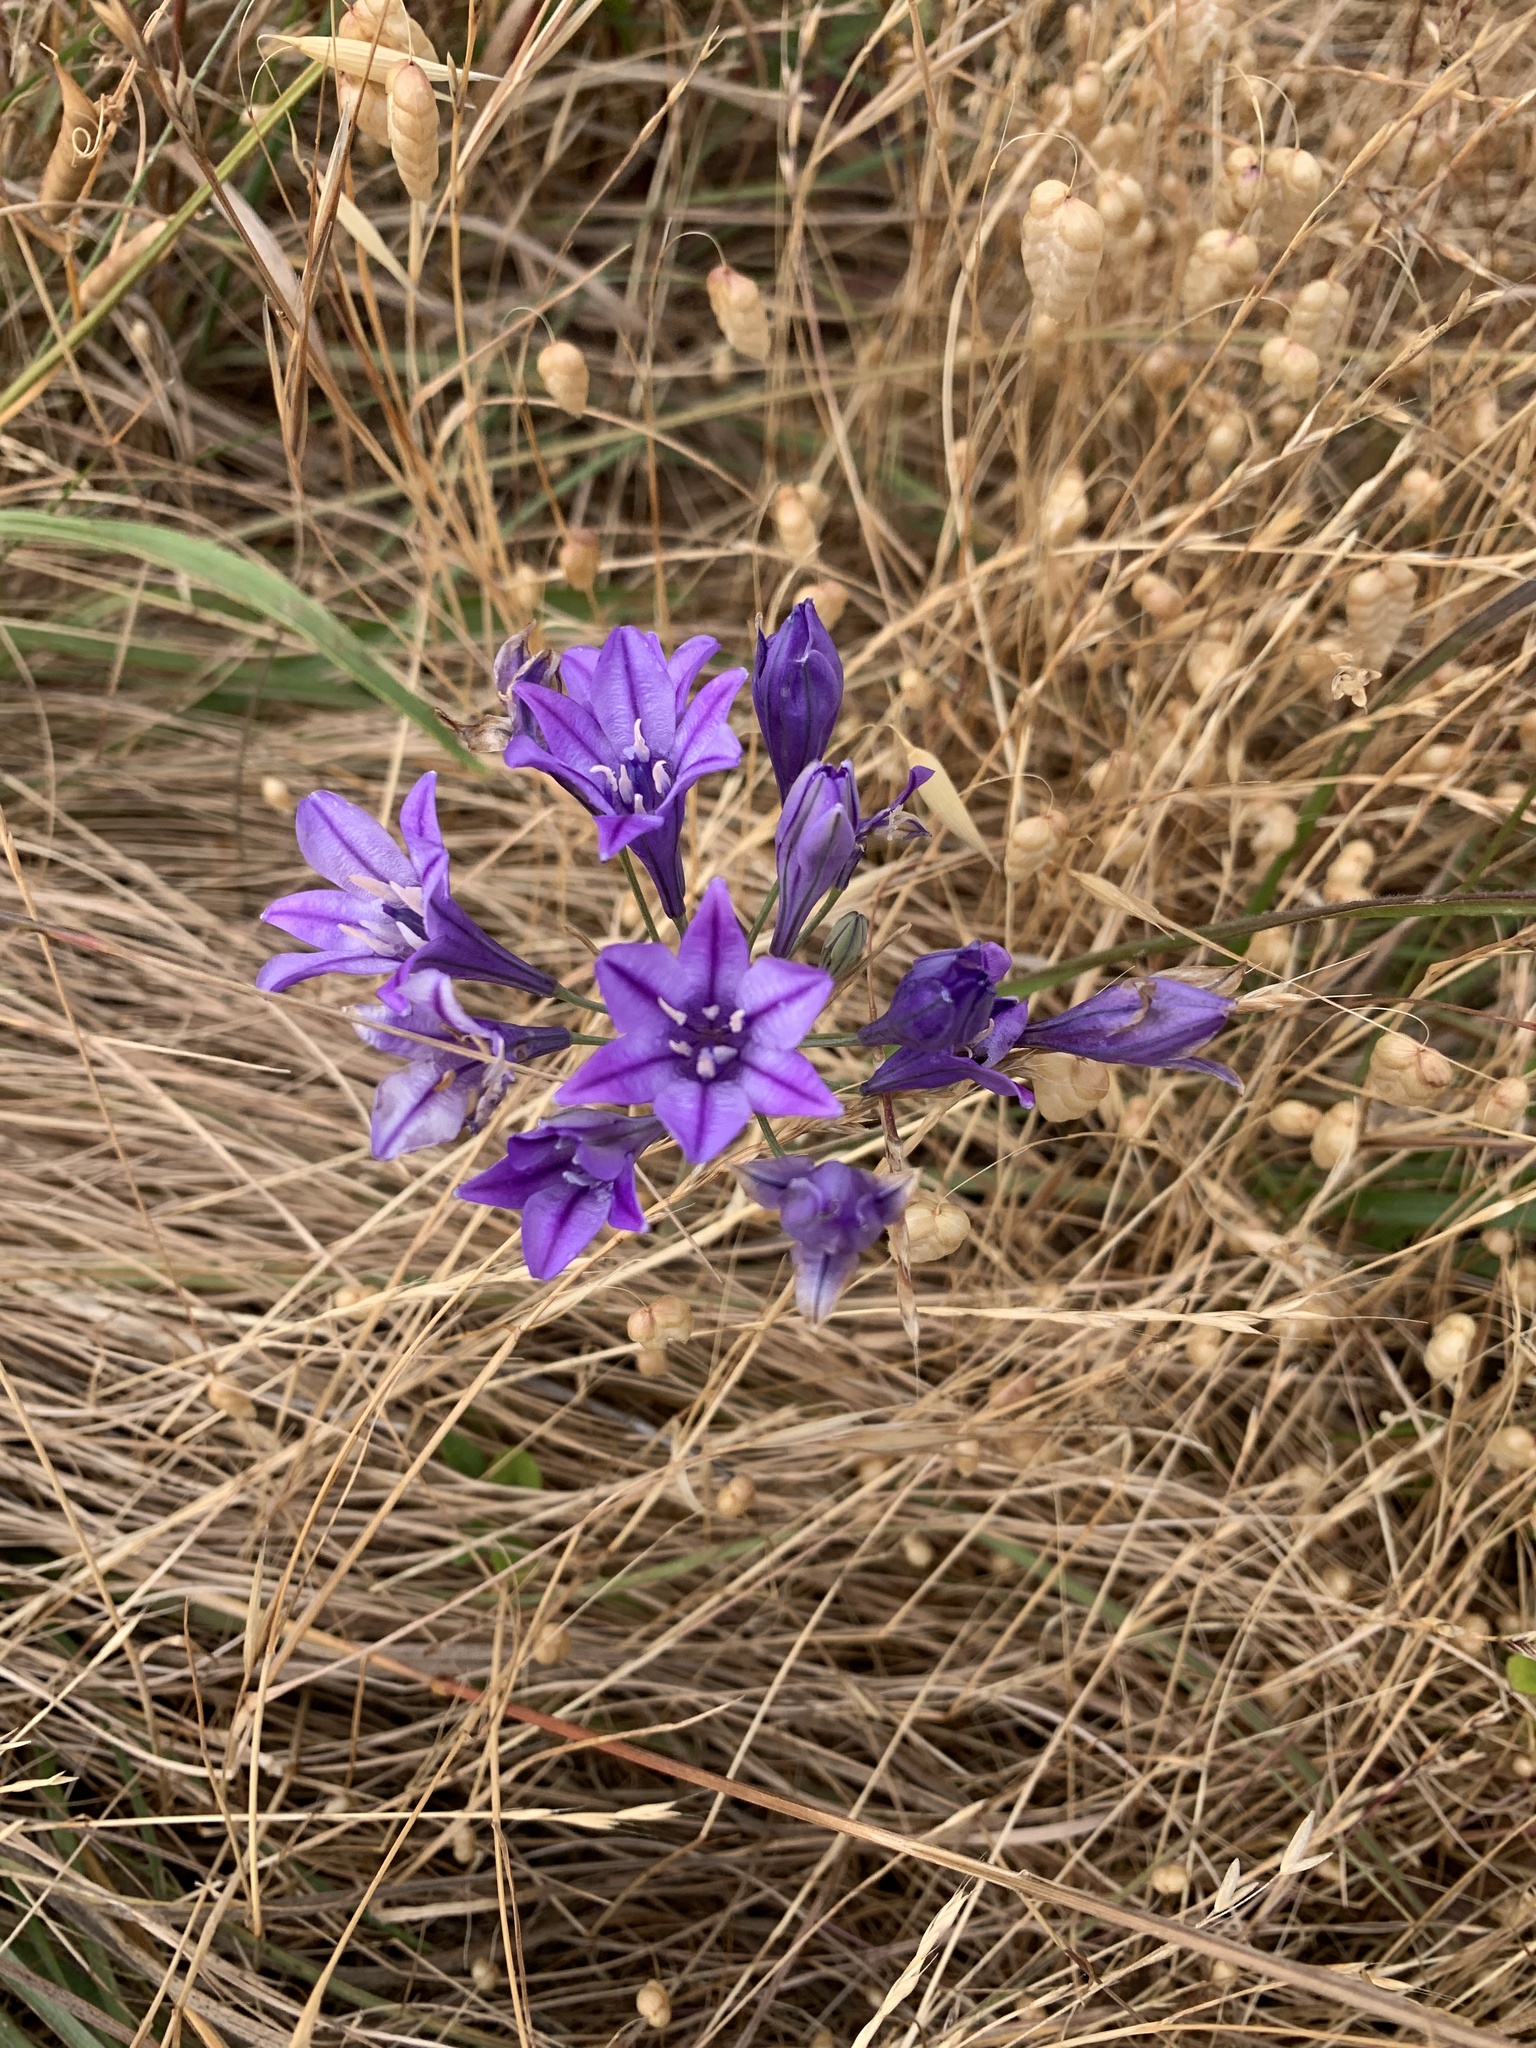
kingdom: Plantae
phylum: Tracheophyta
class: Liliopsida
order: Asparagales
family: Asparagaceae
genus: Triteleia
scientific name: Triteleia laxa
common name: Triplet-lily
